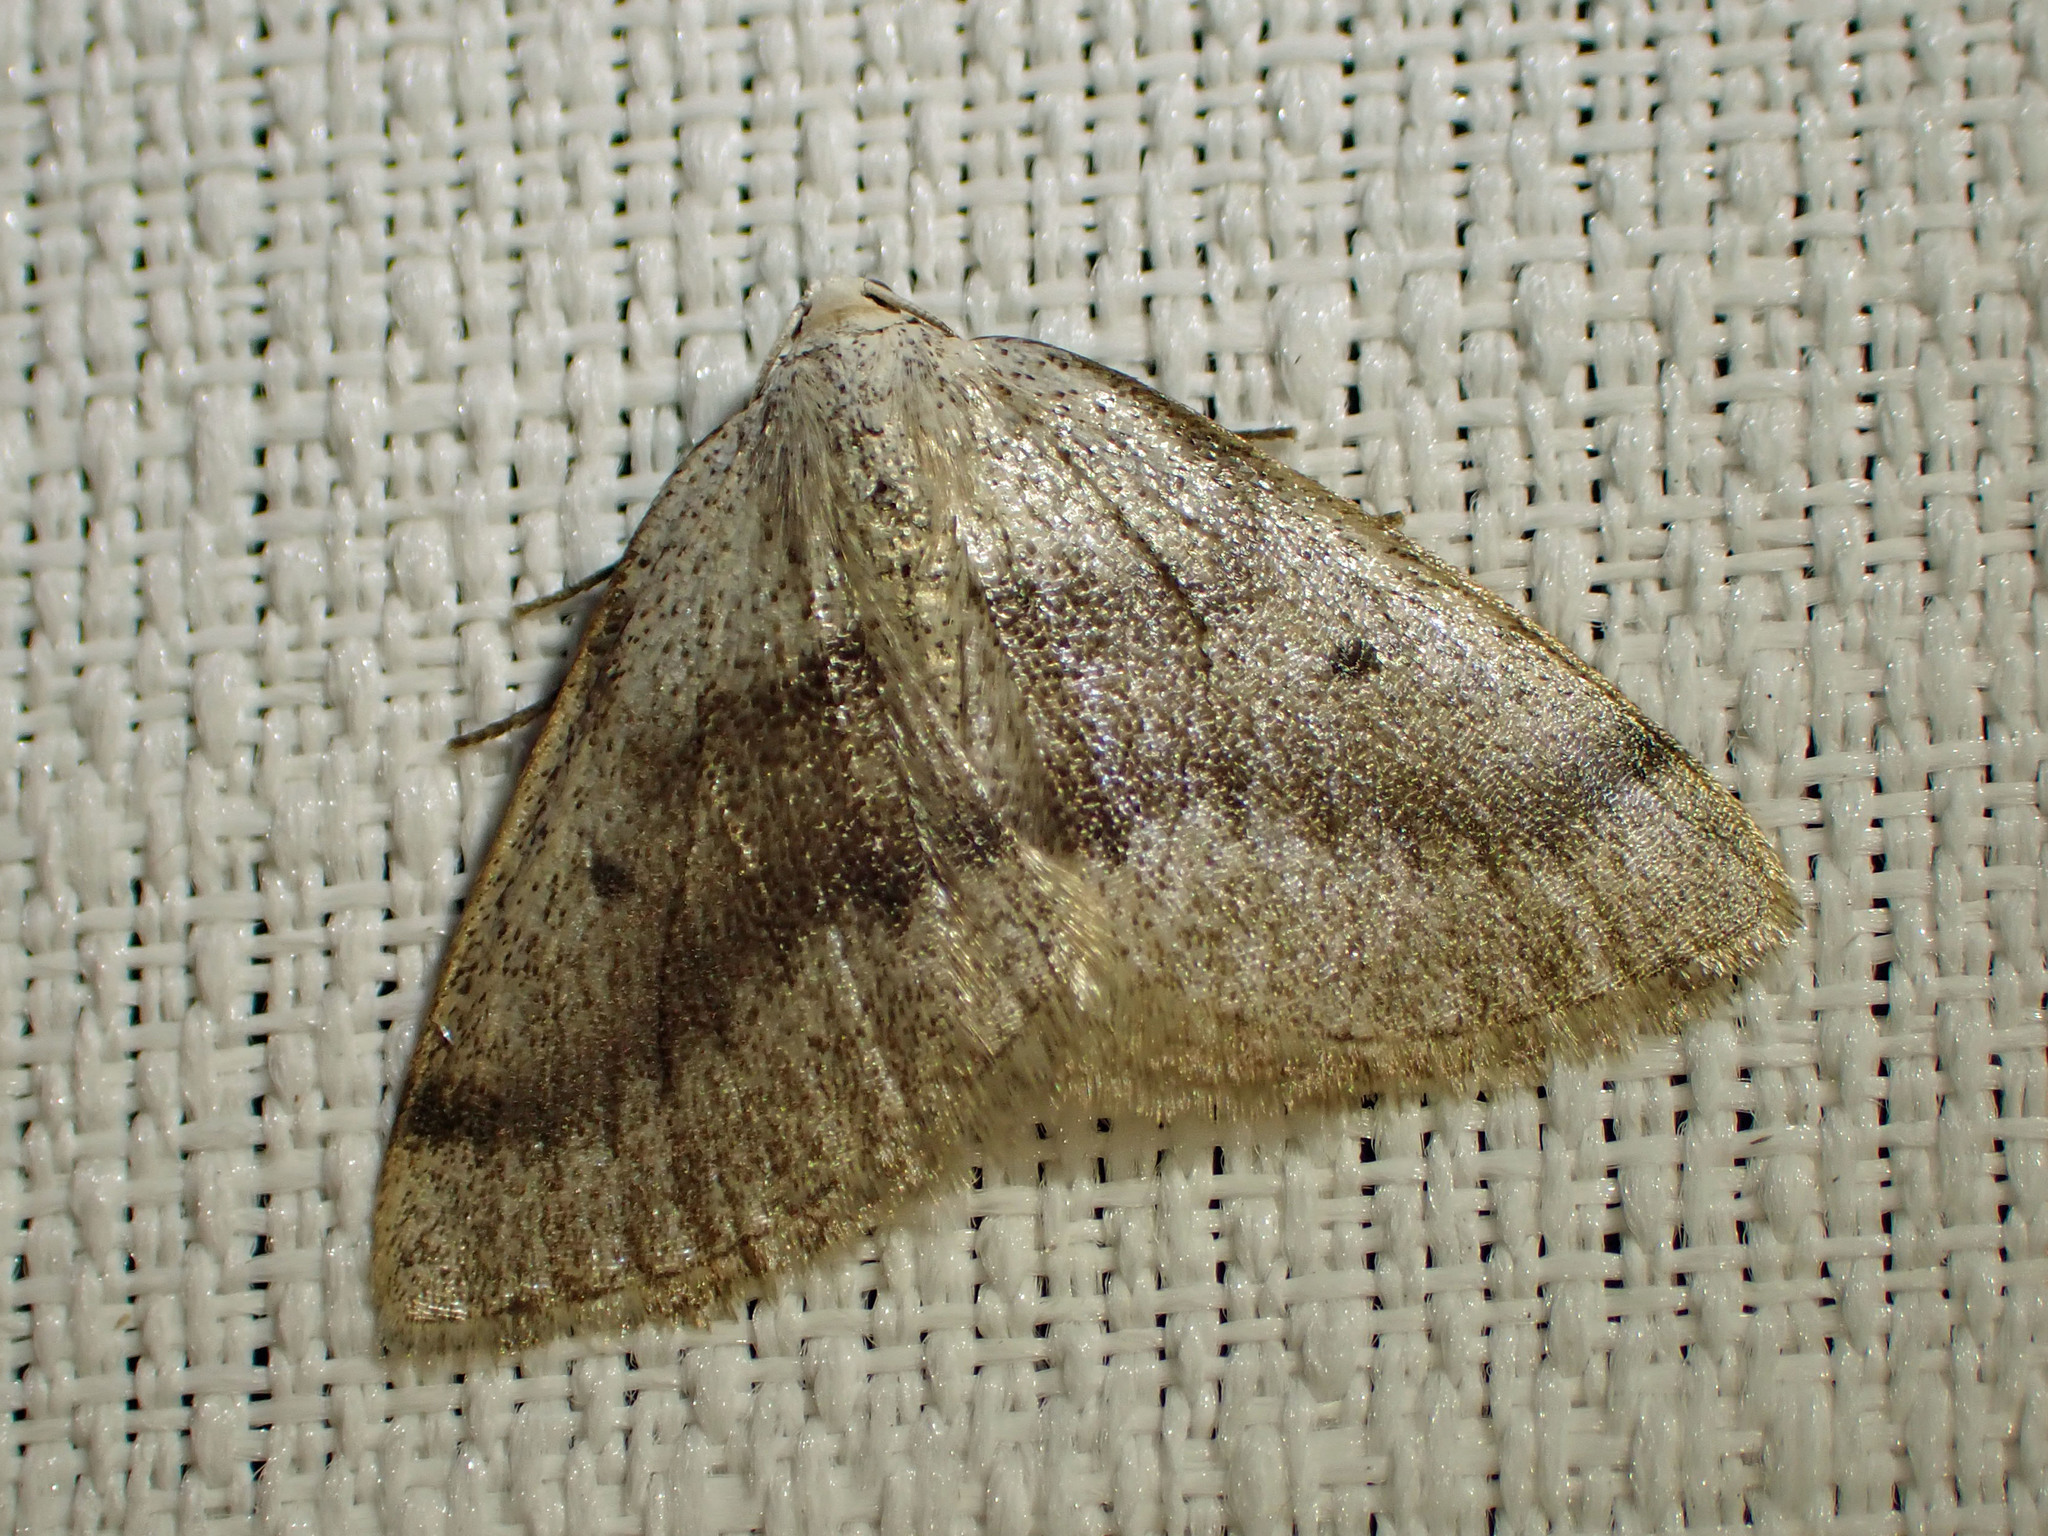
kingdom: Animalia
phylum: Arthropoda
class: Insecta
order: Lepidoptera
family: Geometridae
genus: Lomographa
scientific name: Lomographa glomeraria
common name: Gray spring moth
